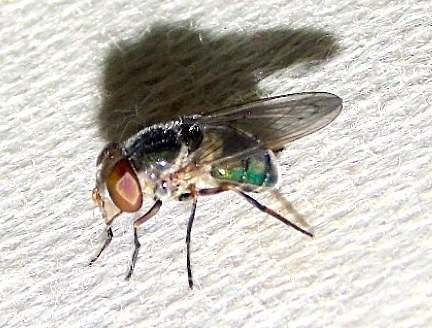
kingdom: Animalia
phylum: Arthropoda
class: Insecta
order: Diptera
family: Syrphidae
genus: Copestylum
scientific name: Copestylum
